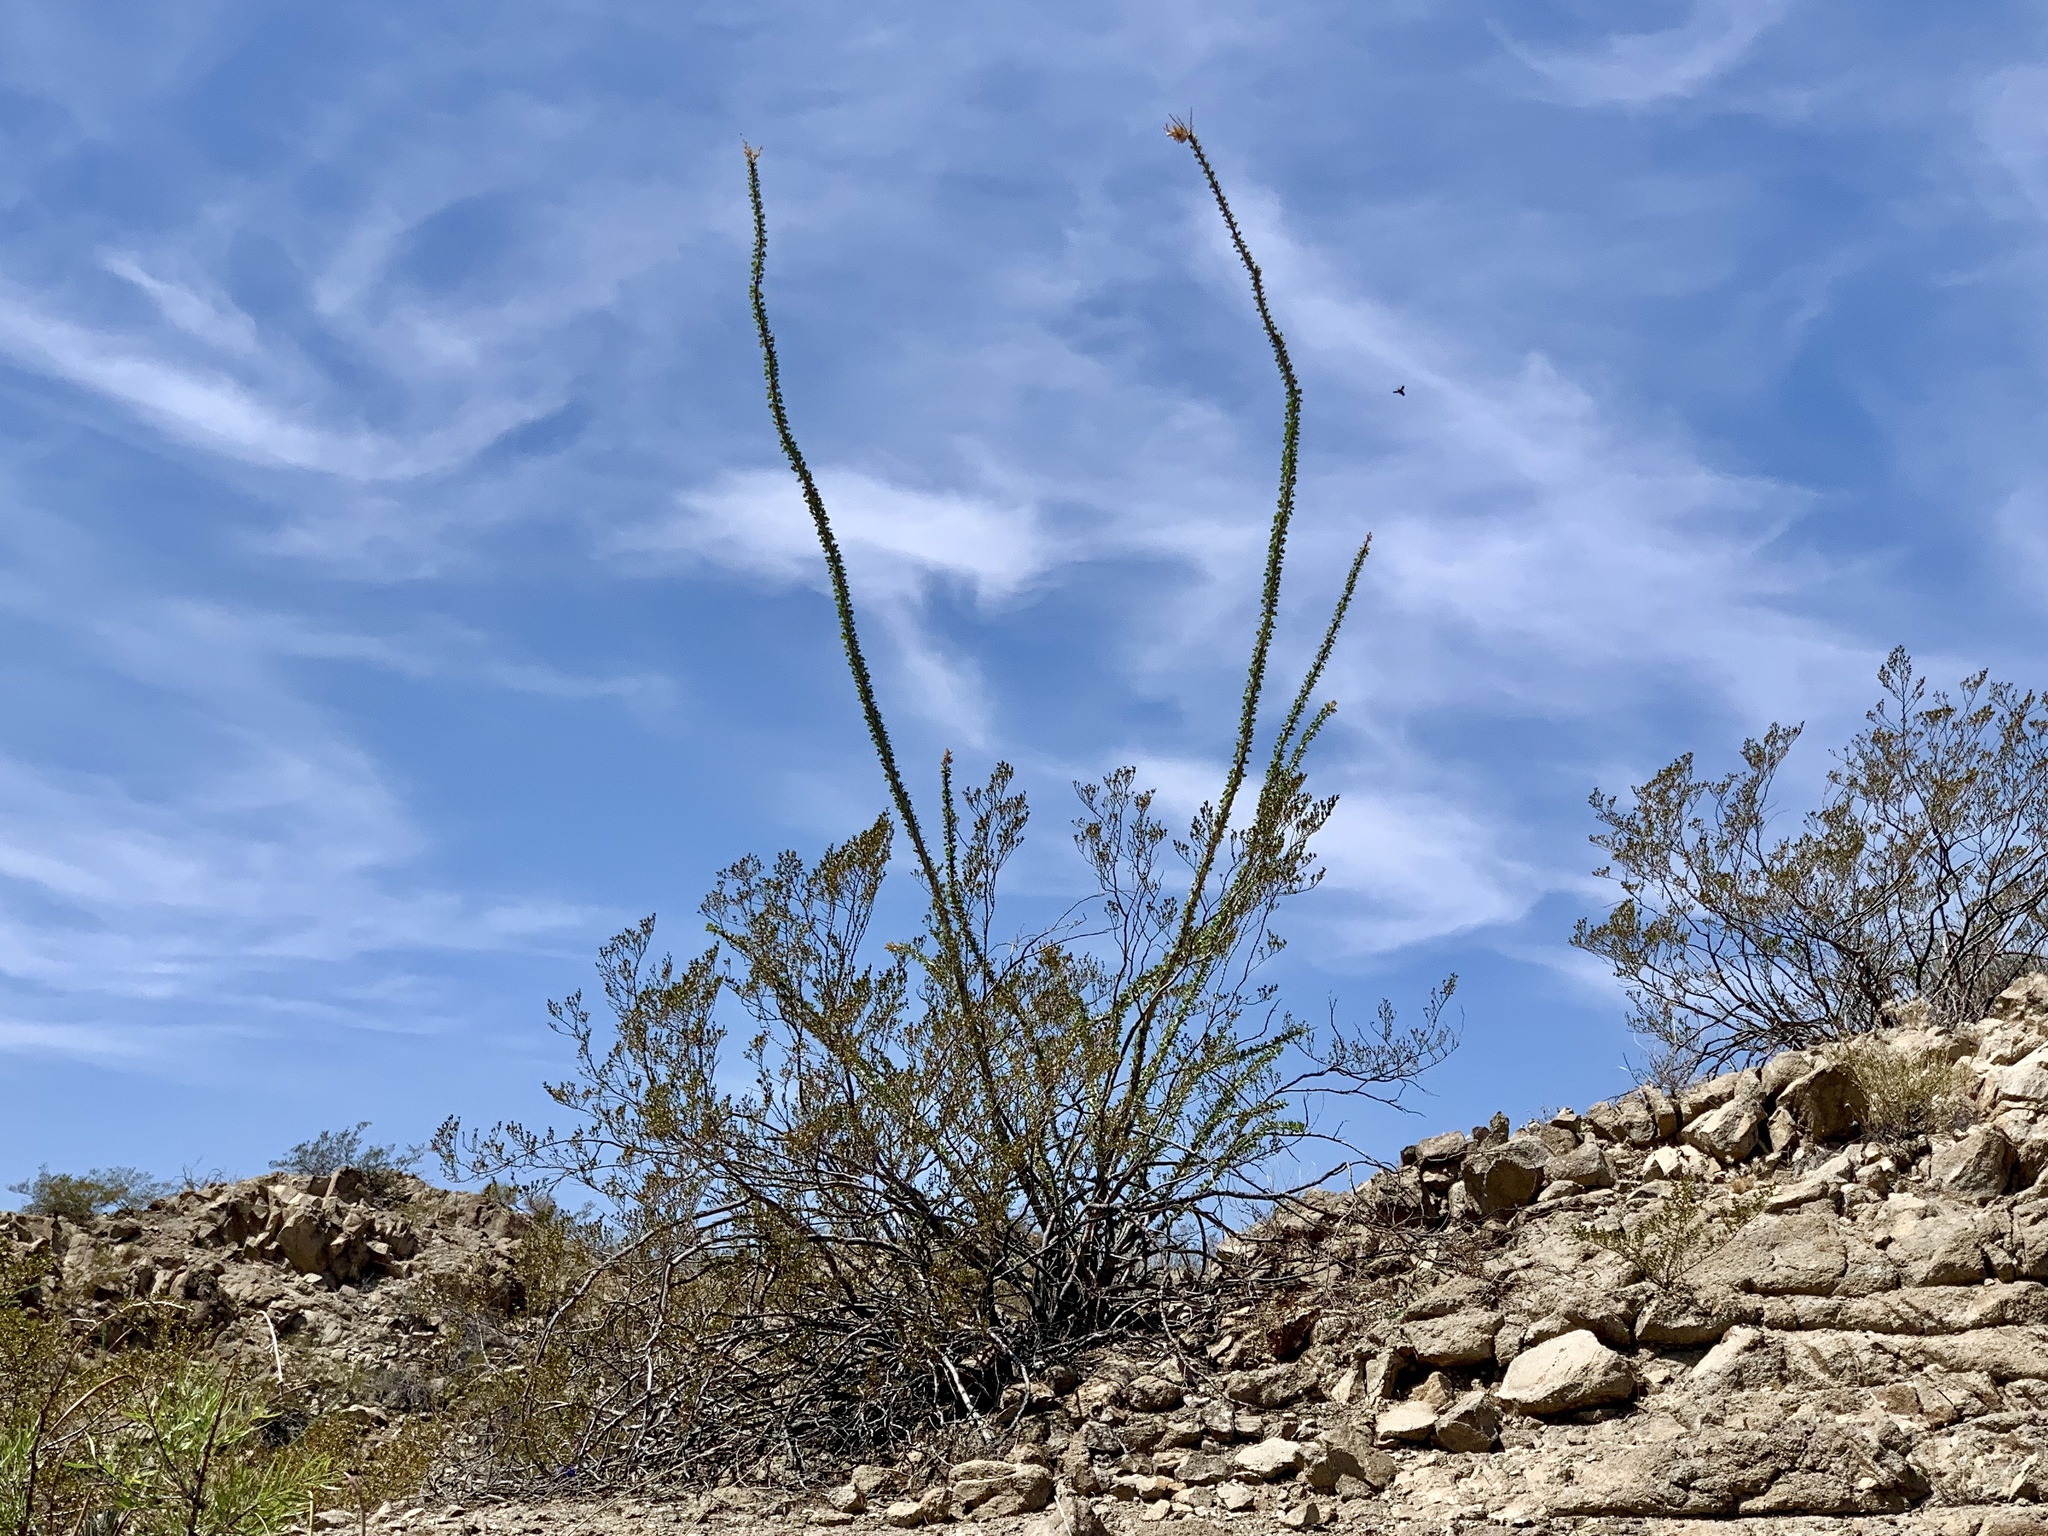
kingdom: Plantae
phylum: Tracheophyta
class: Magnoliopsida
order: Ericales
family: Fouquieriaceae
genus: Fouquieria
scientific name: Fouquieria splendens
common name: Vine-cactus
